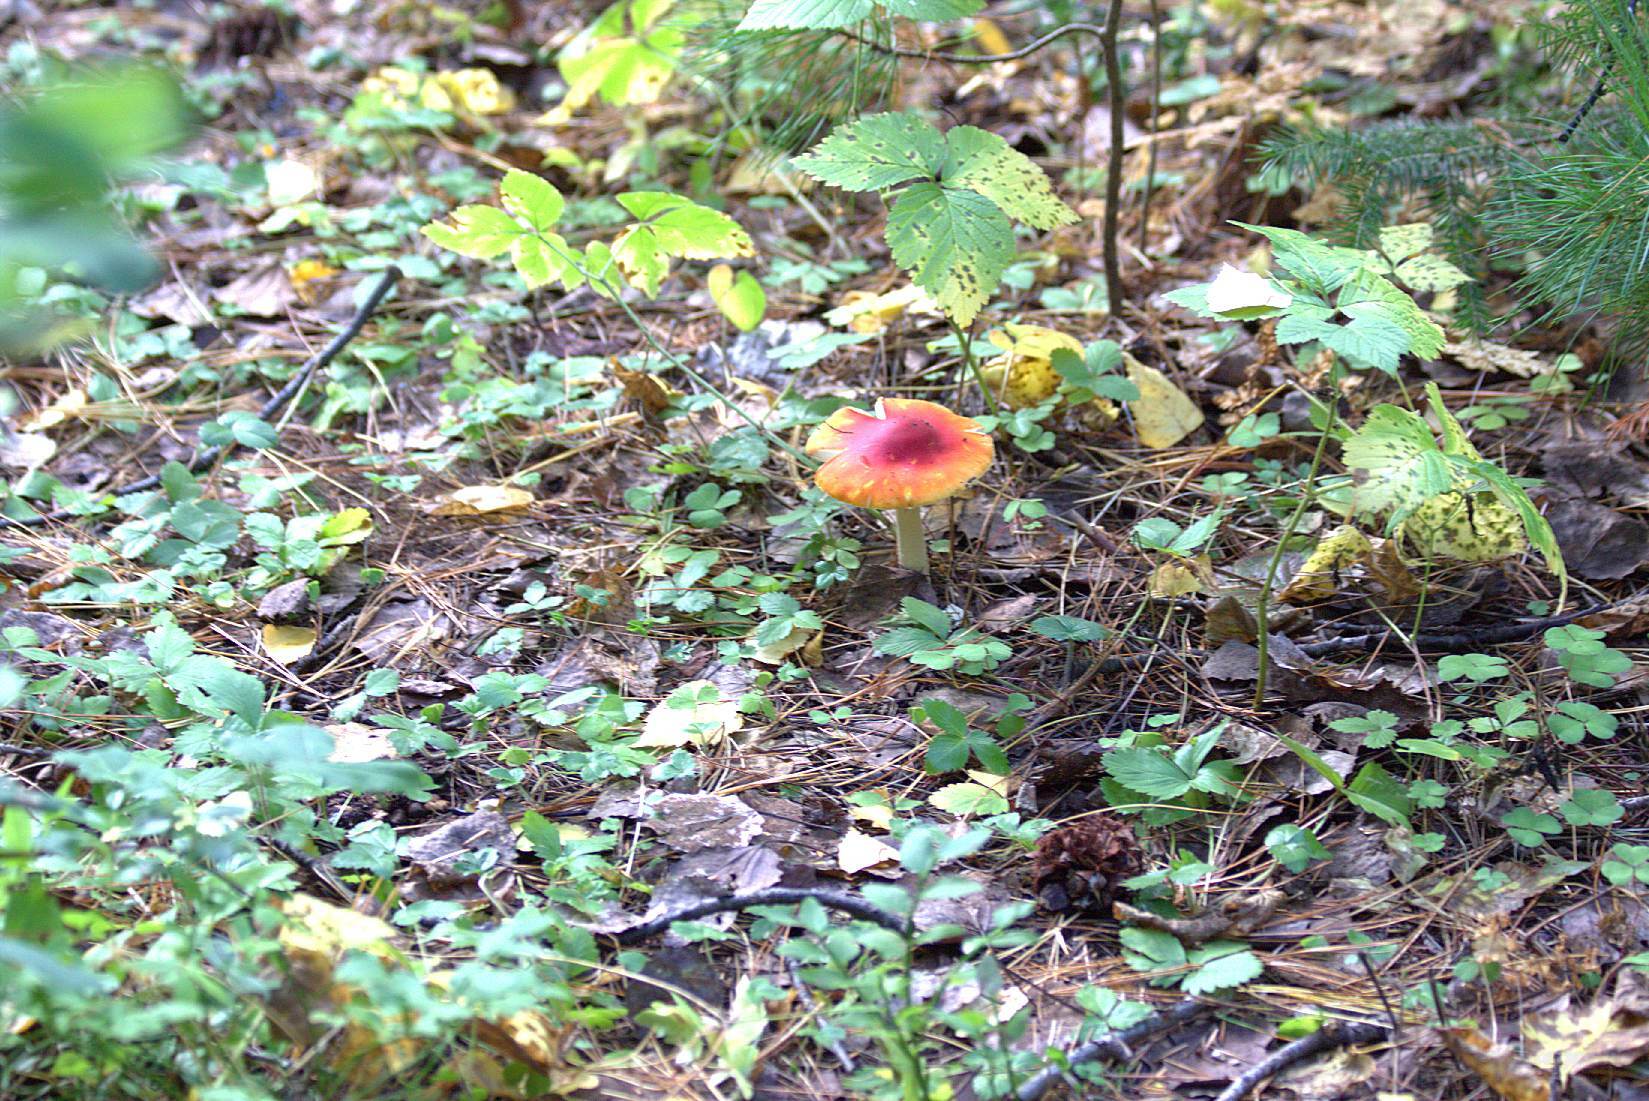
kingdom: Fungi
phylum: Basidiomycota
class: Agaricomycetes
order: Agaricales
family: Amanitaceae
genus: Amanita
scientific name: Amanita muscaria
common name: Fly agaric
